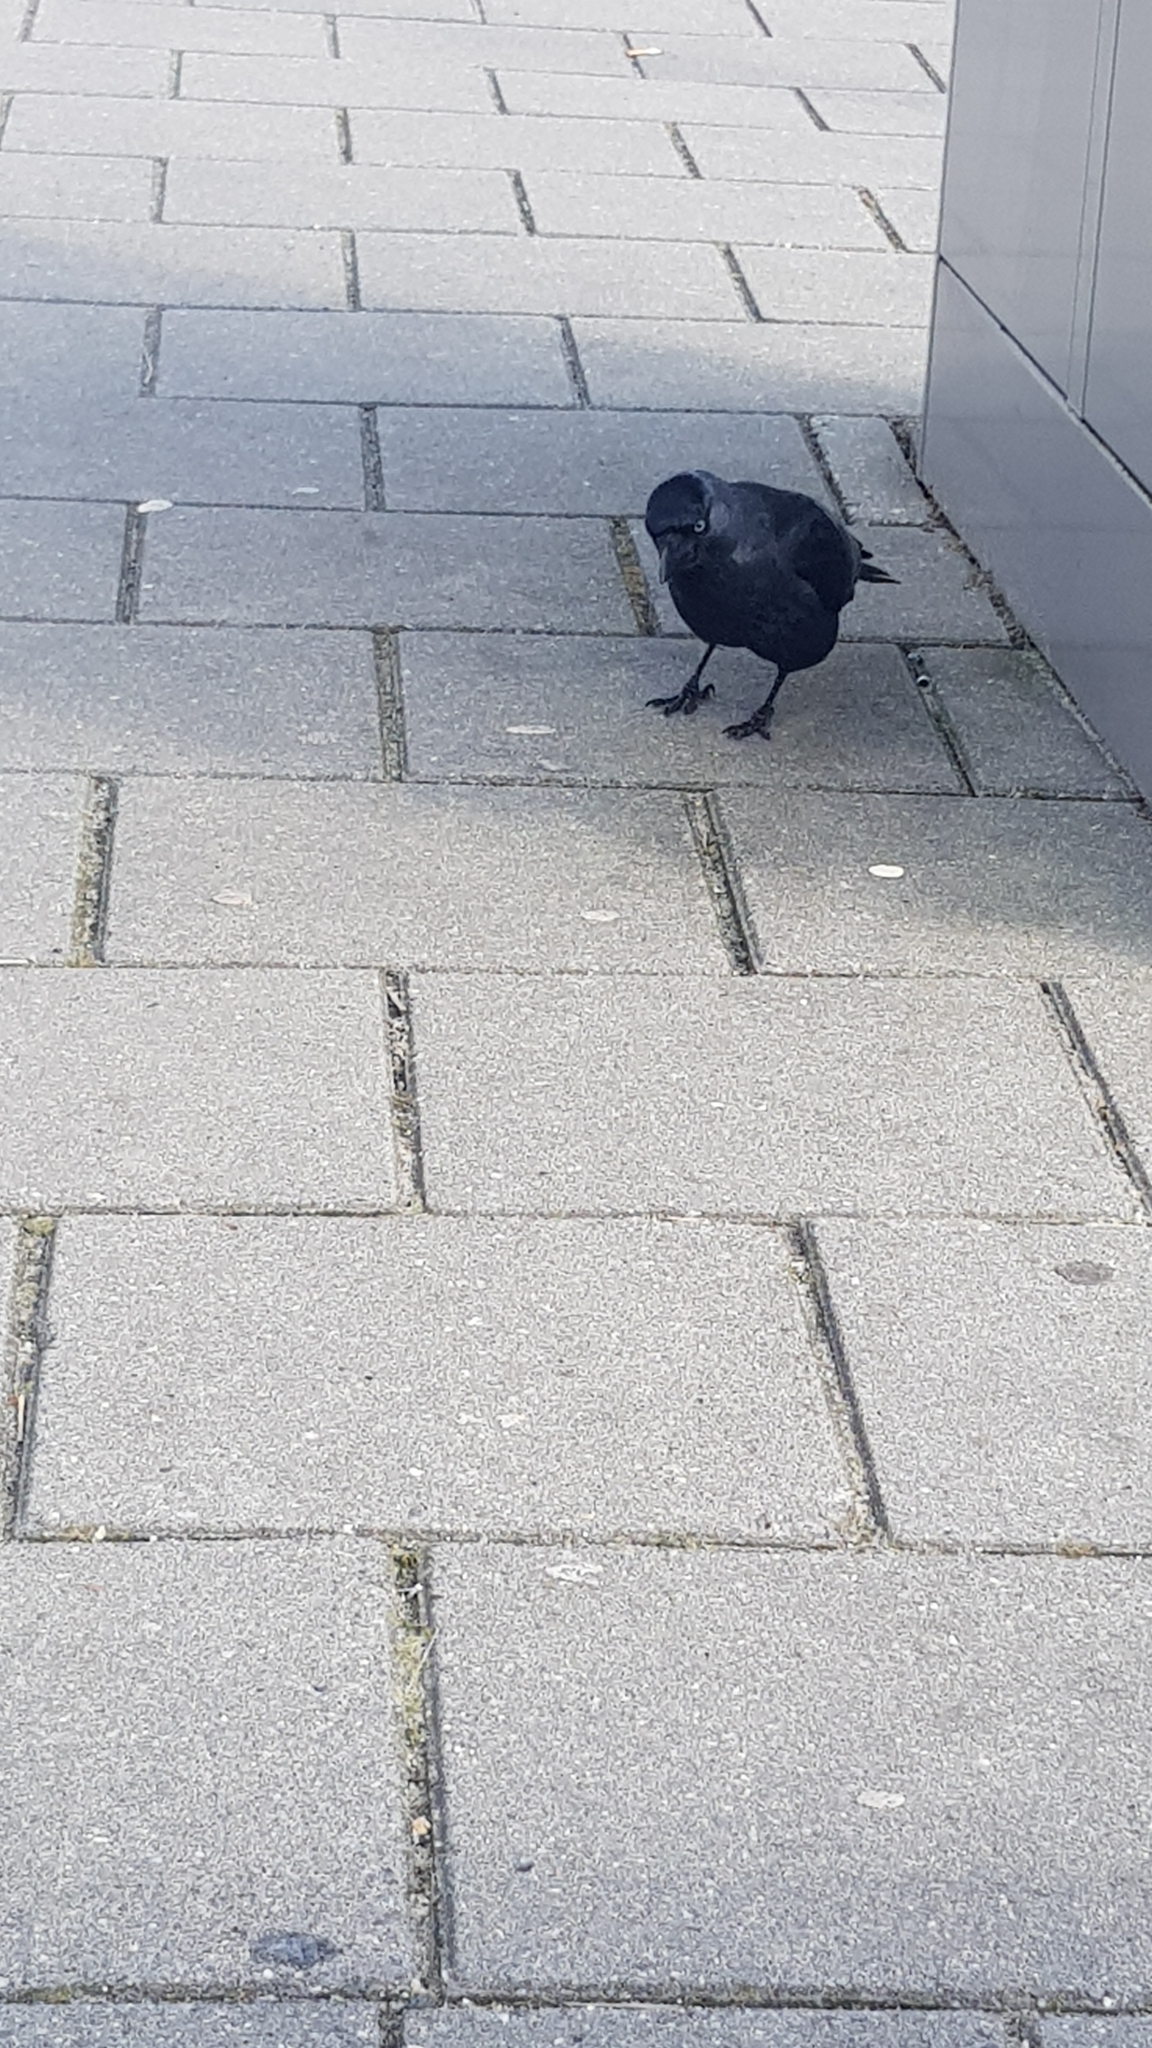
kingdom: Animalia
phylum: Chordata
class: Aves
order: Passeriformes
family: Corvidae
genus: Coloeus
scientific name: Coloeus monedula
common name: Western jackdaw
